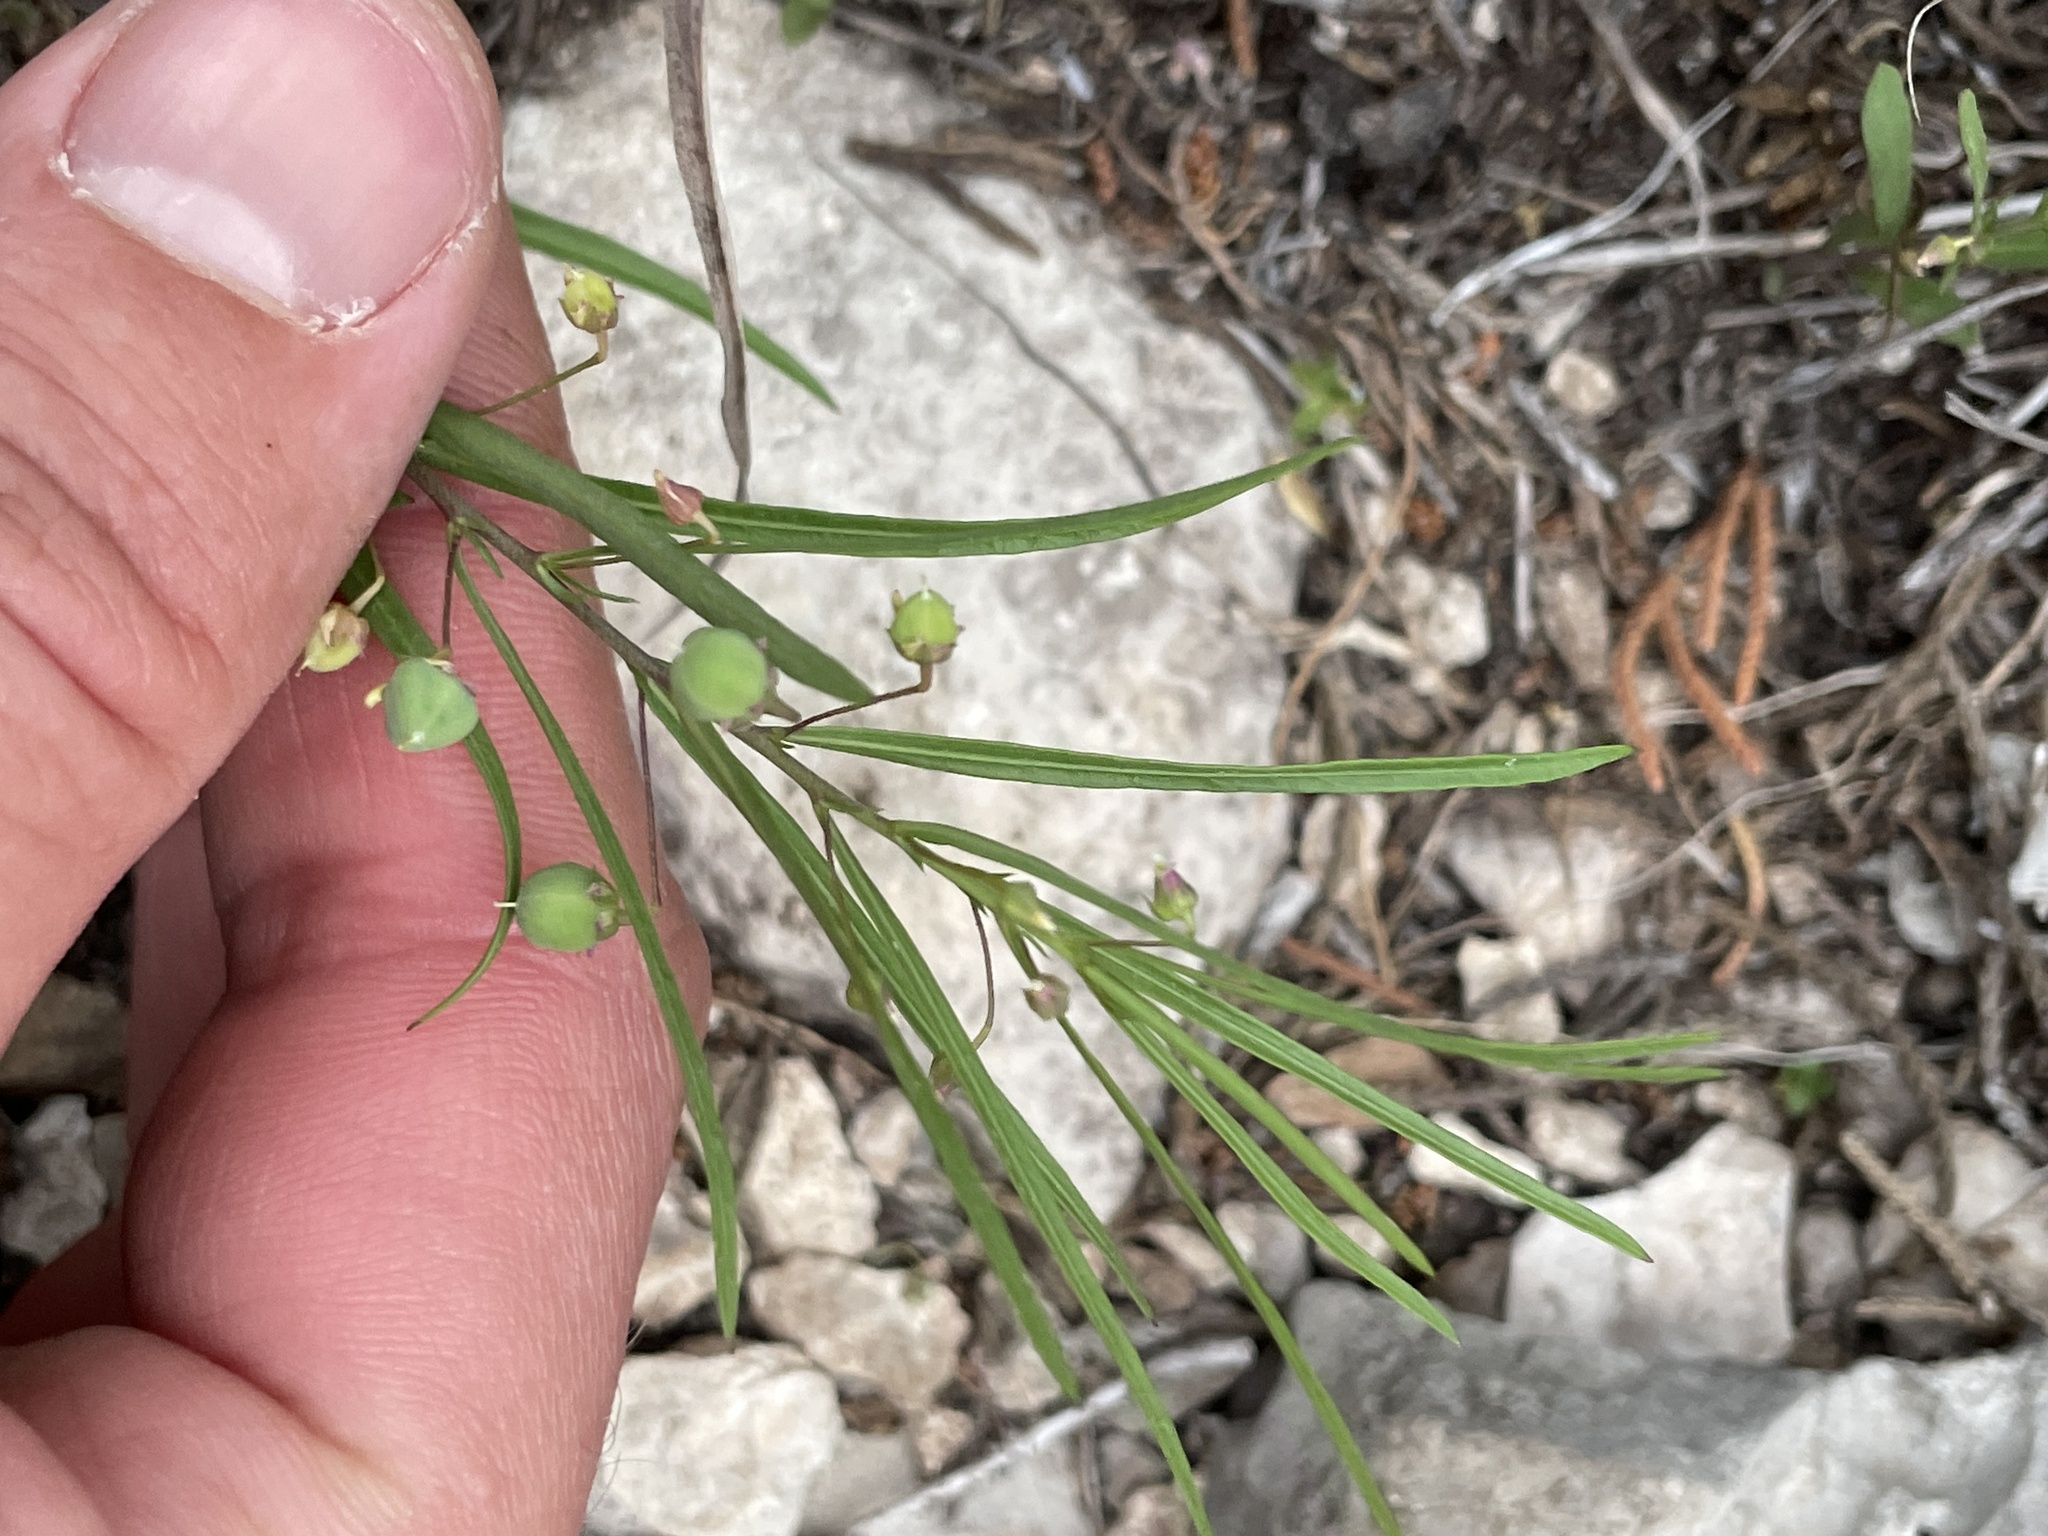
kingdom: Plantae
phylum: Tracheophyta
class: Magnoliopsida
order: Malpighiales
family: Violaceae
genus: Pombalia
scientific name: Pombalia verticillata
